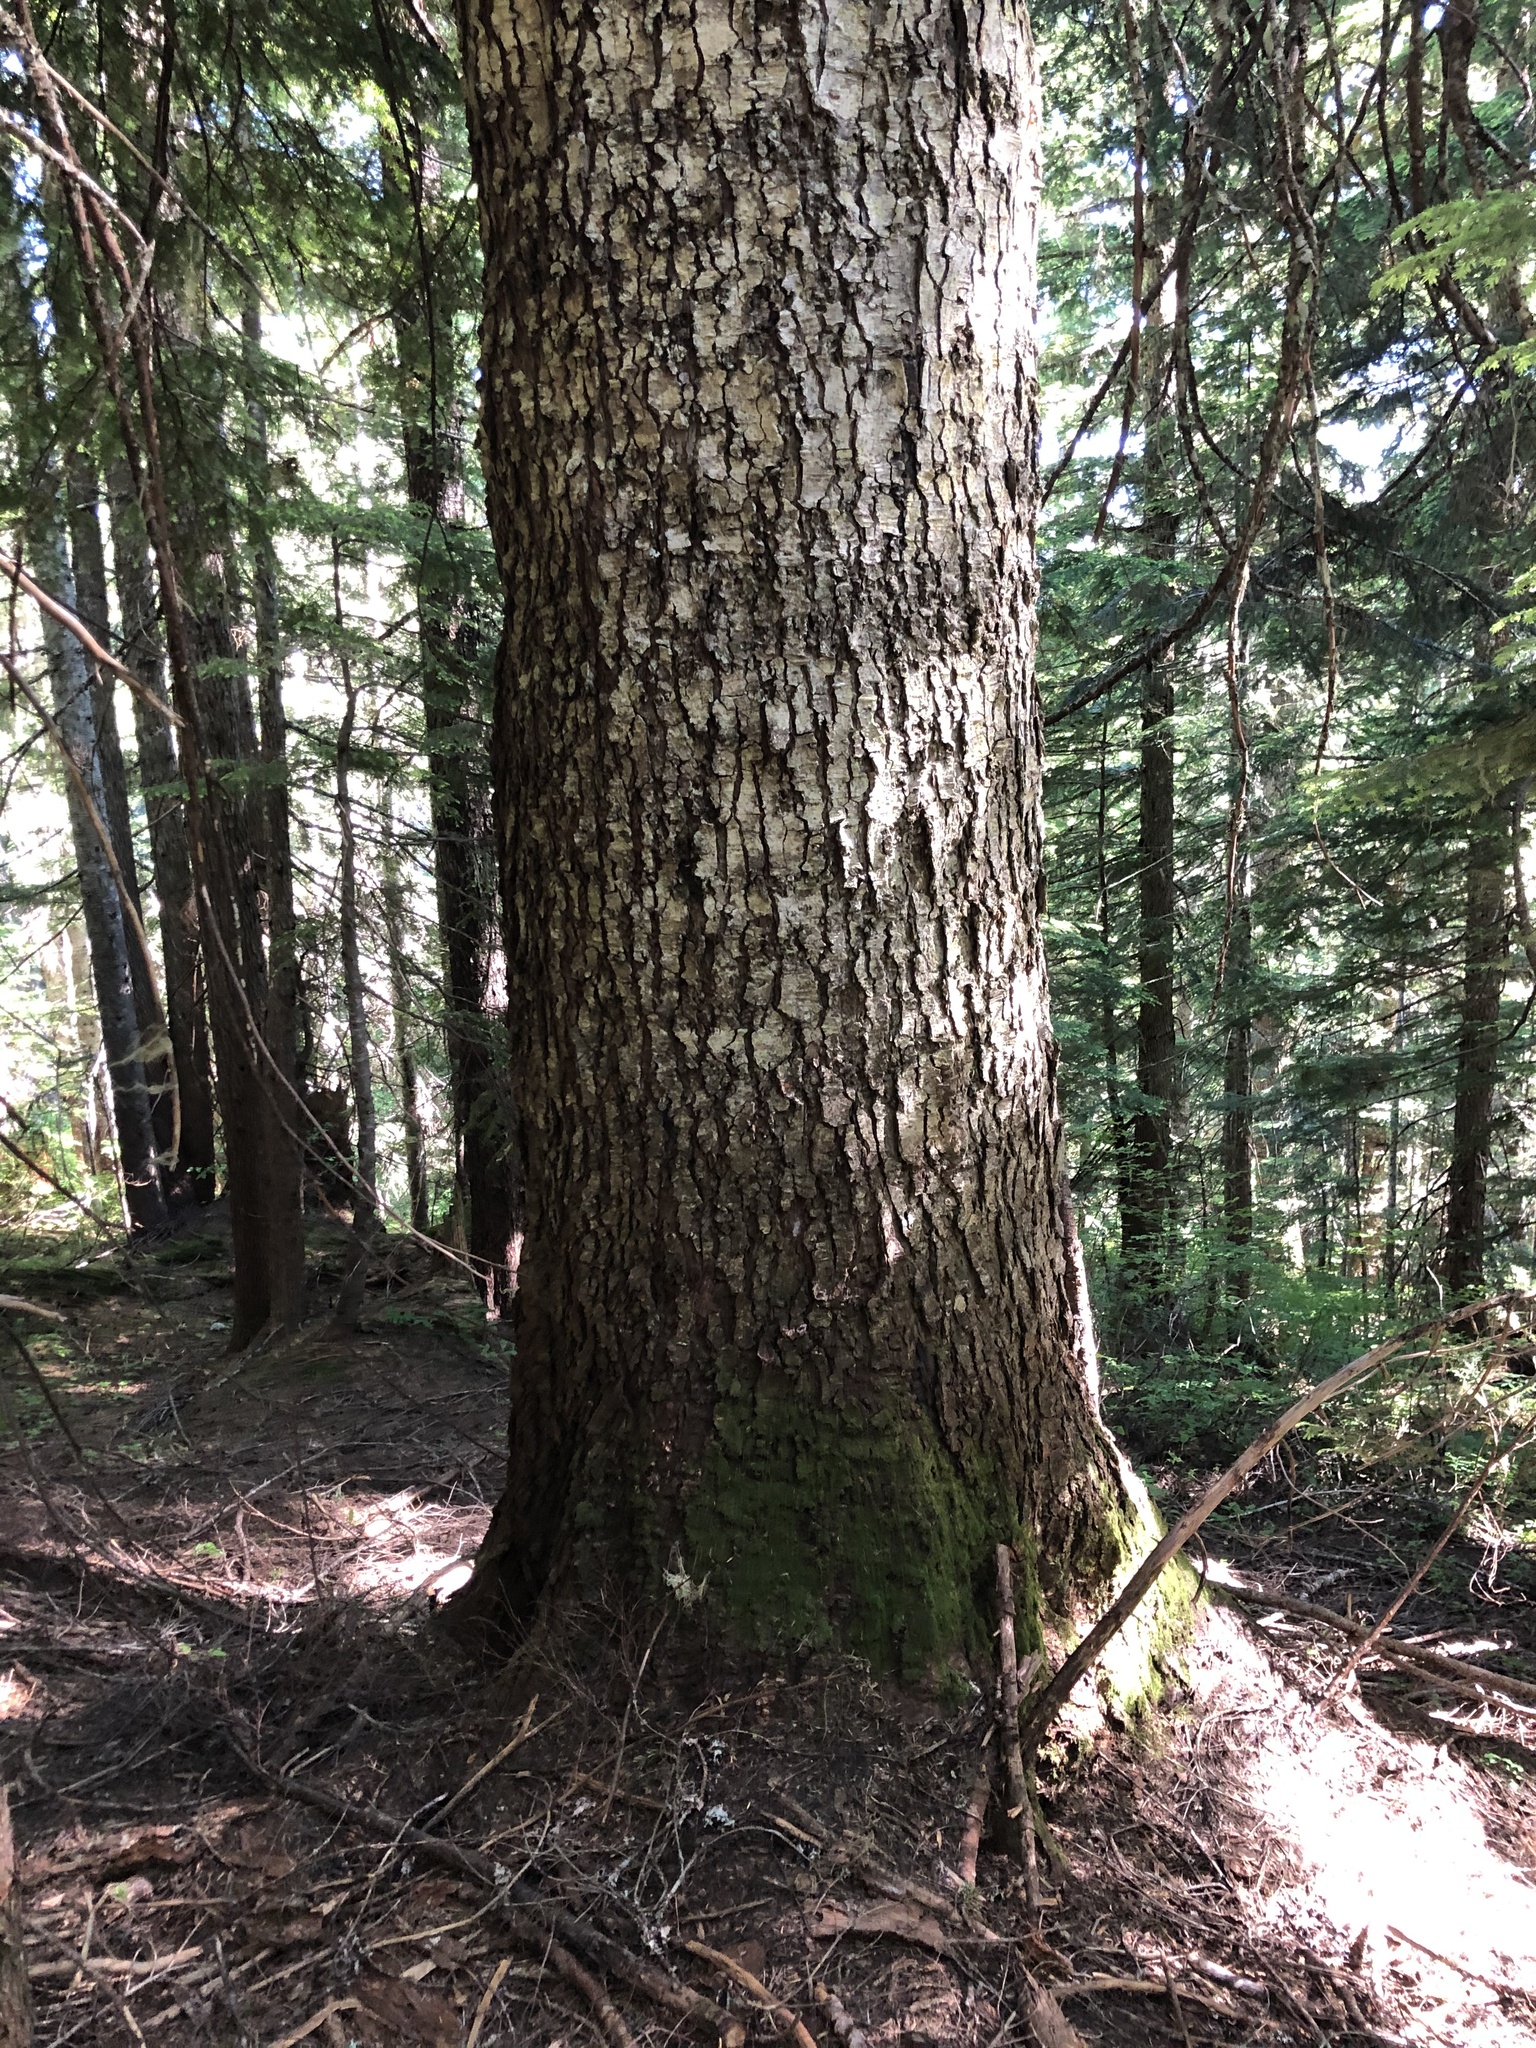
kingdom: Plantae
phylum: Tracheophyta
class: Pinopsida
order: Pinales
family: Pinaceae
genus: Abies
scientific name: Abies amabilis
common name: Pacific silver fir
